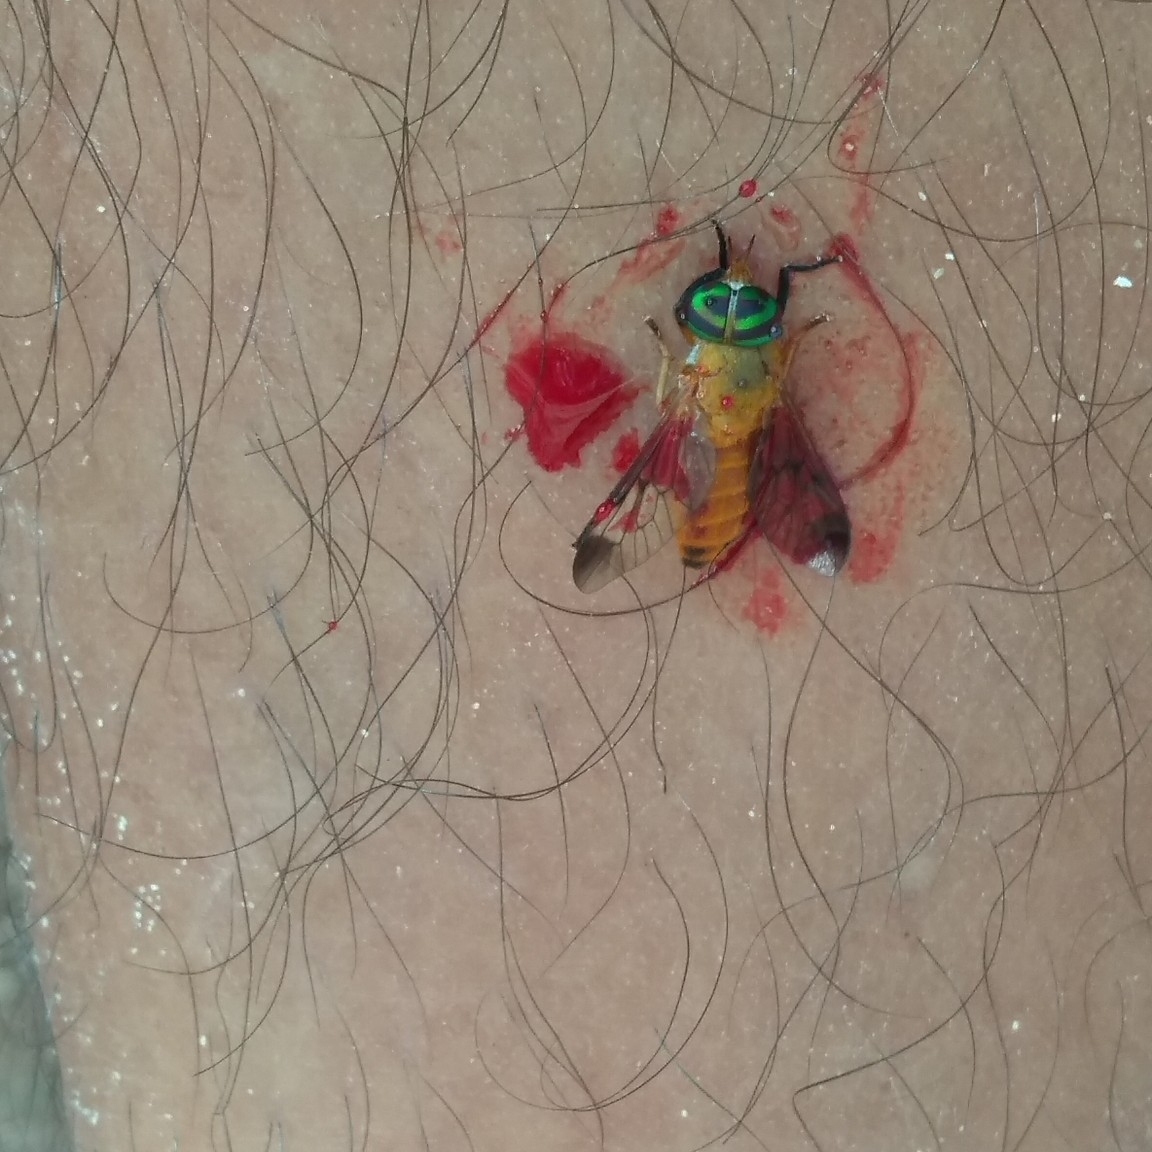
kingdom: Animalia
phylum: Arthropoda
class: Insecta
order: Diptera
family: Tabanidae
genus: Diachlorus
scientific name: Diachlorus ferrugatus
